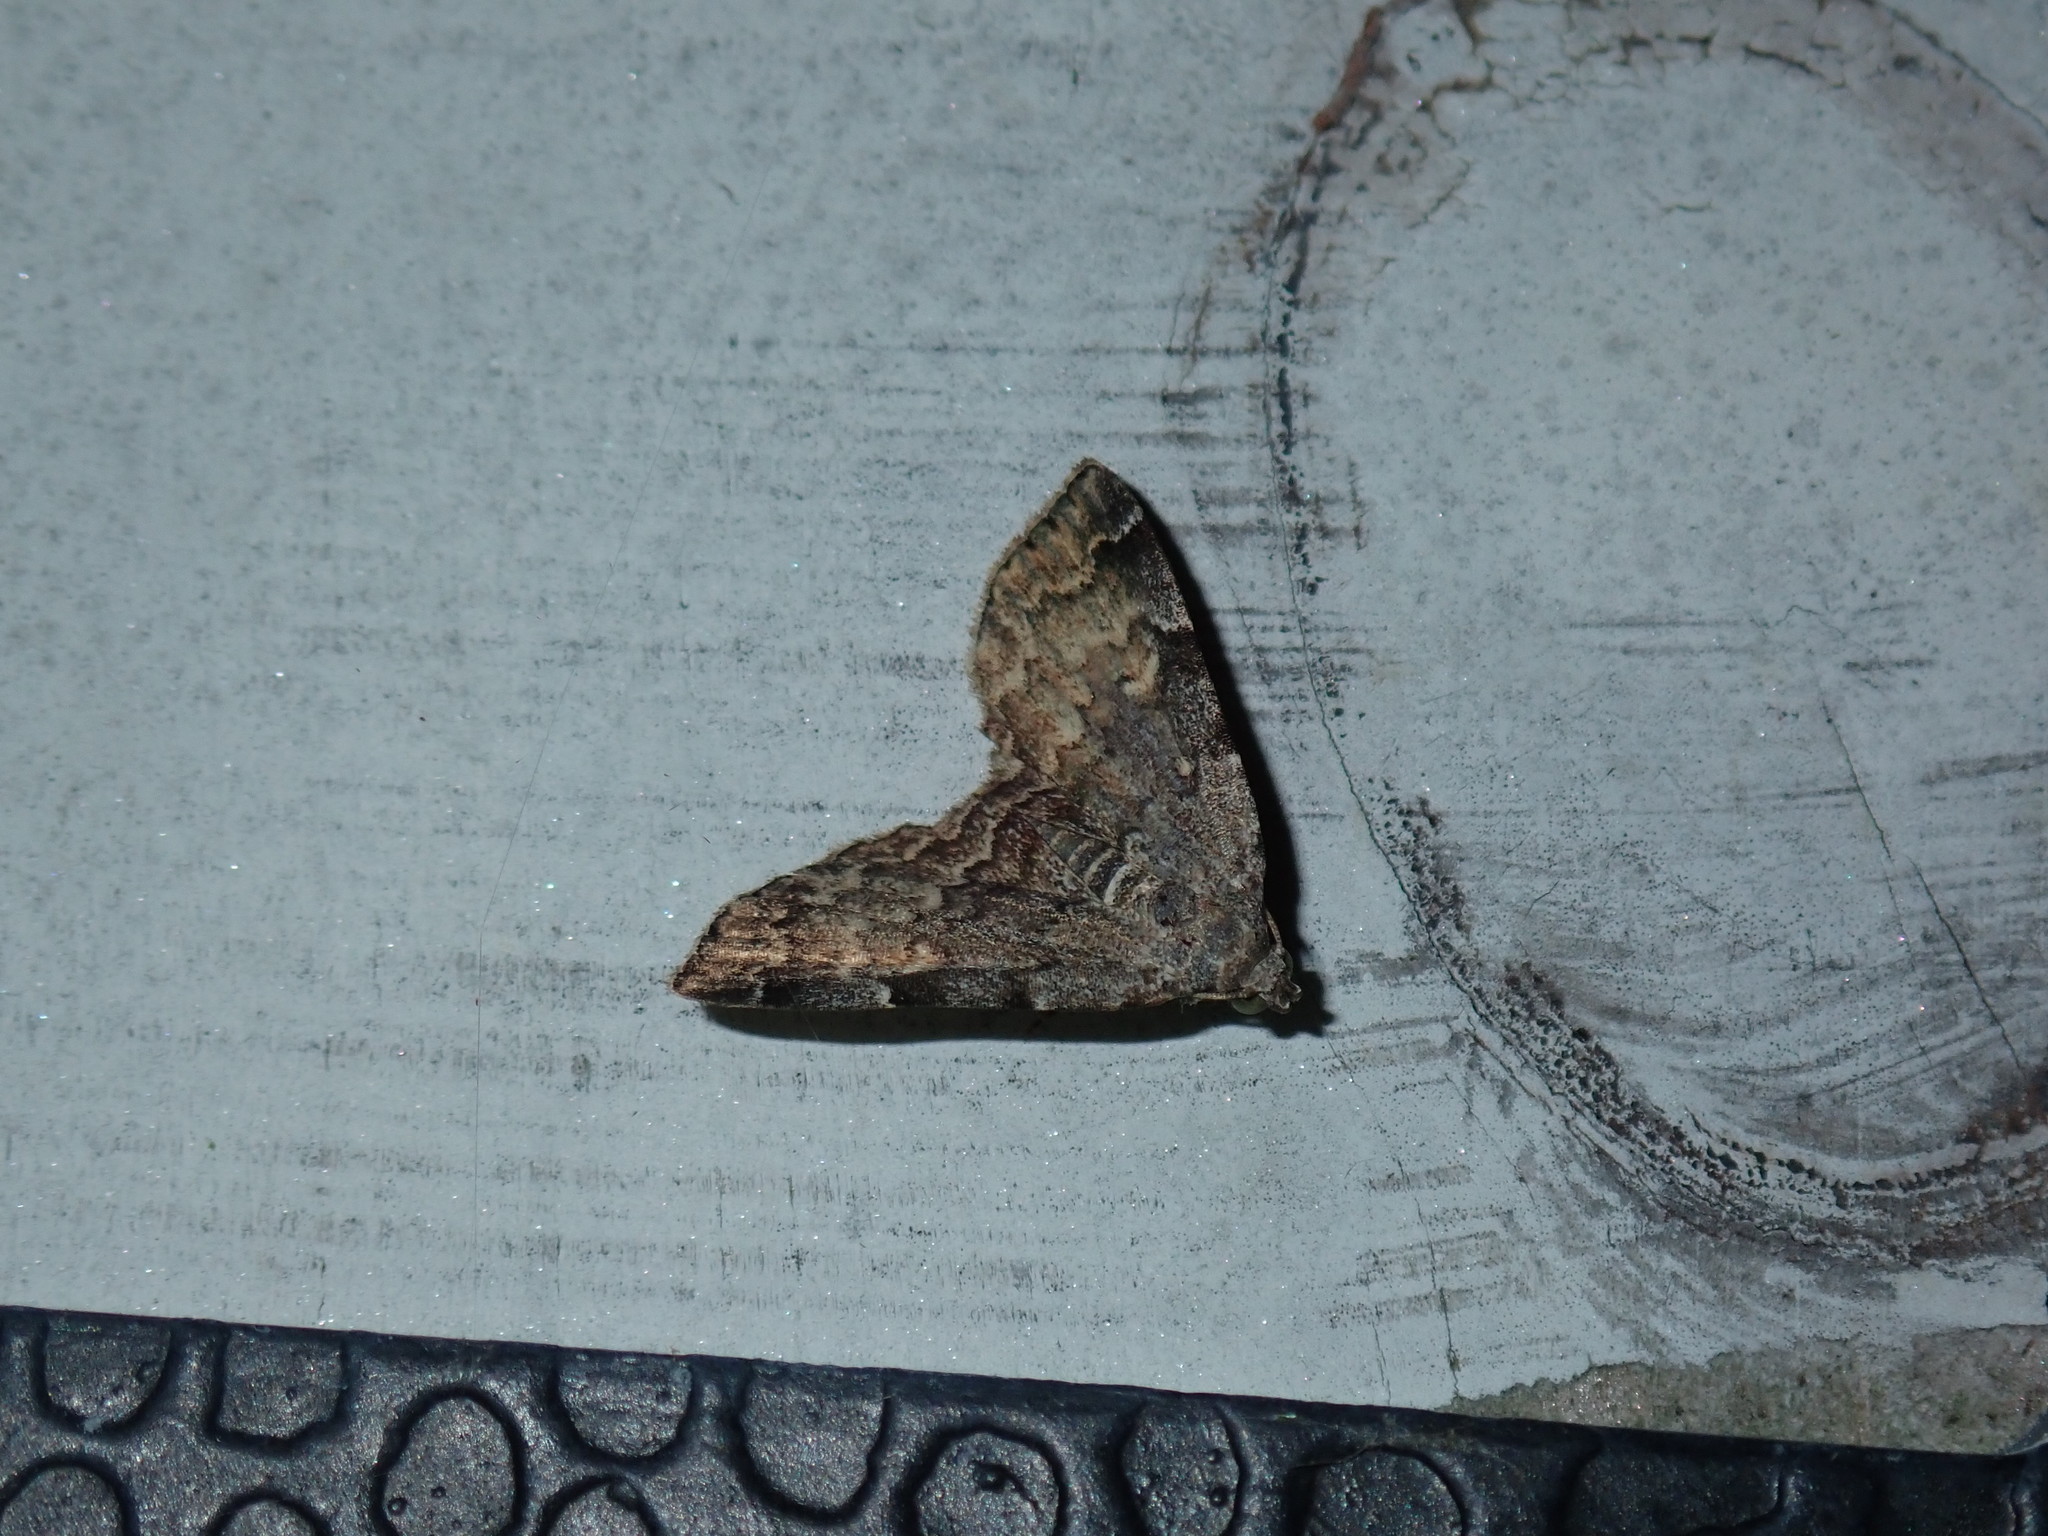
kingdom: Animalia
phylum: Arthropoda
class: Insecta
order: Lepidoptera
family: Erebidae
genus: Idia
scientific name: Idia americalis
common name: American idia moth
